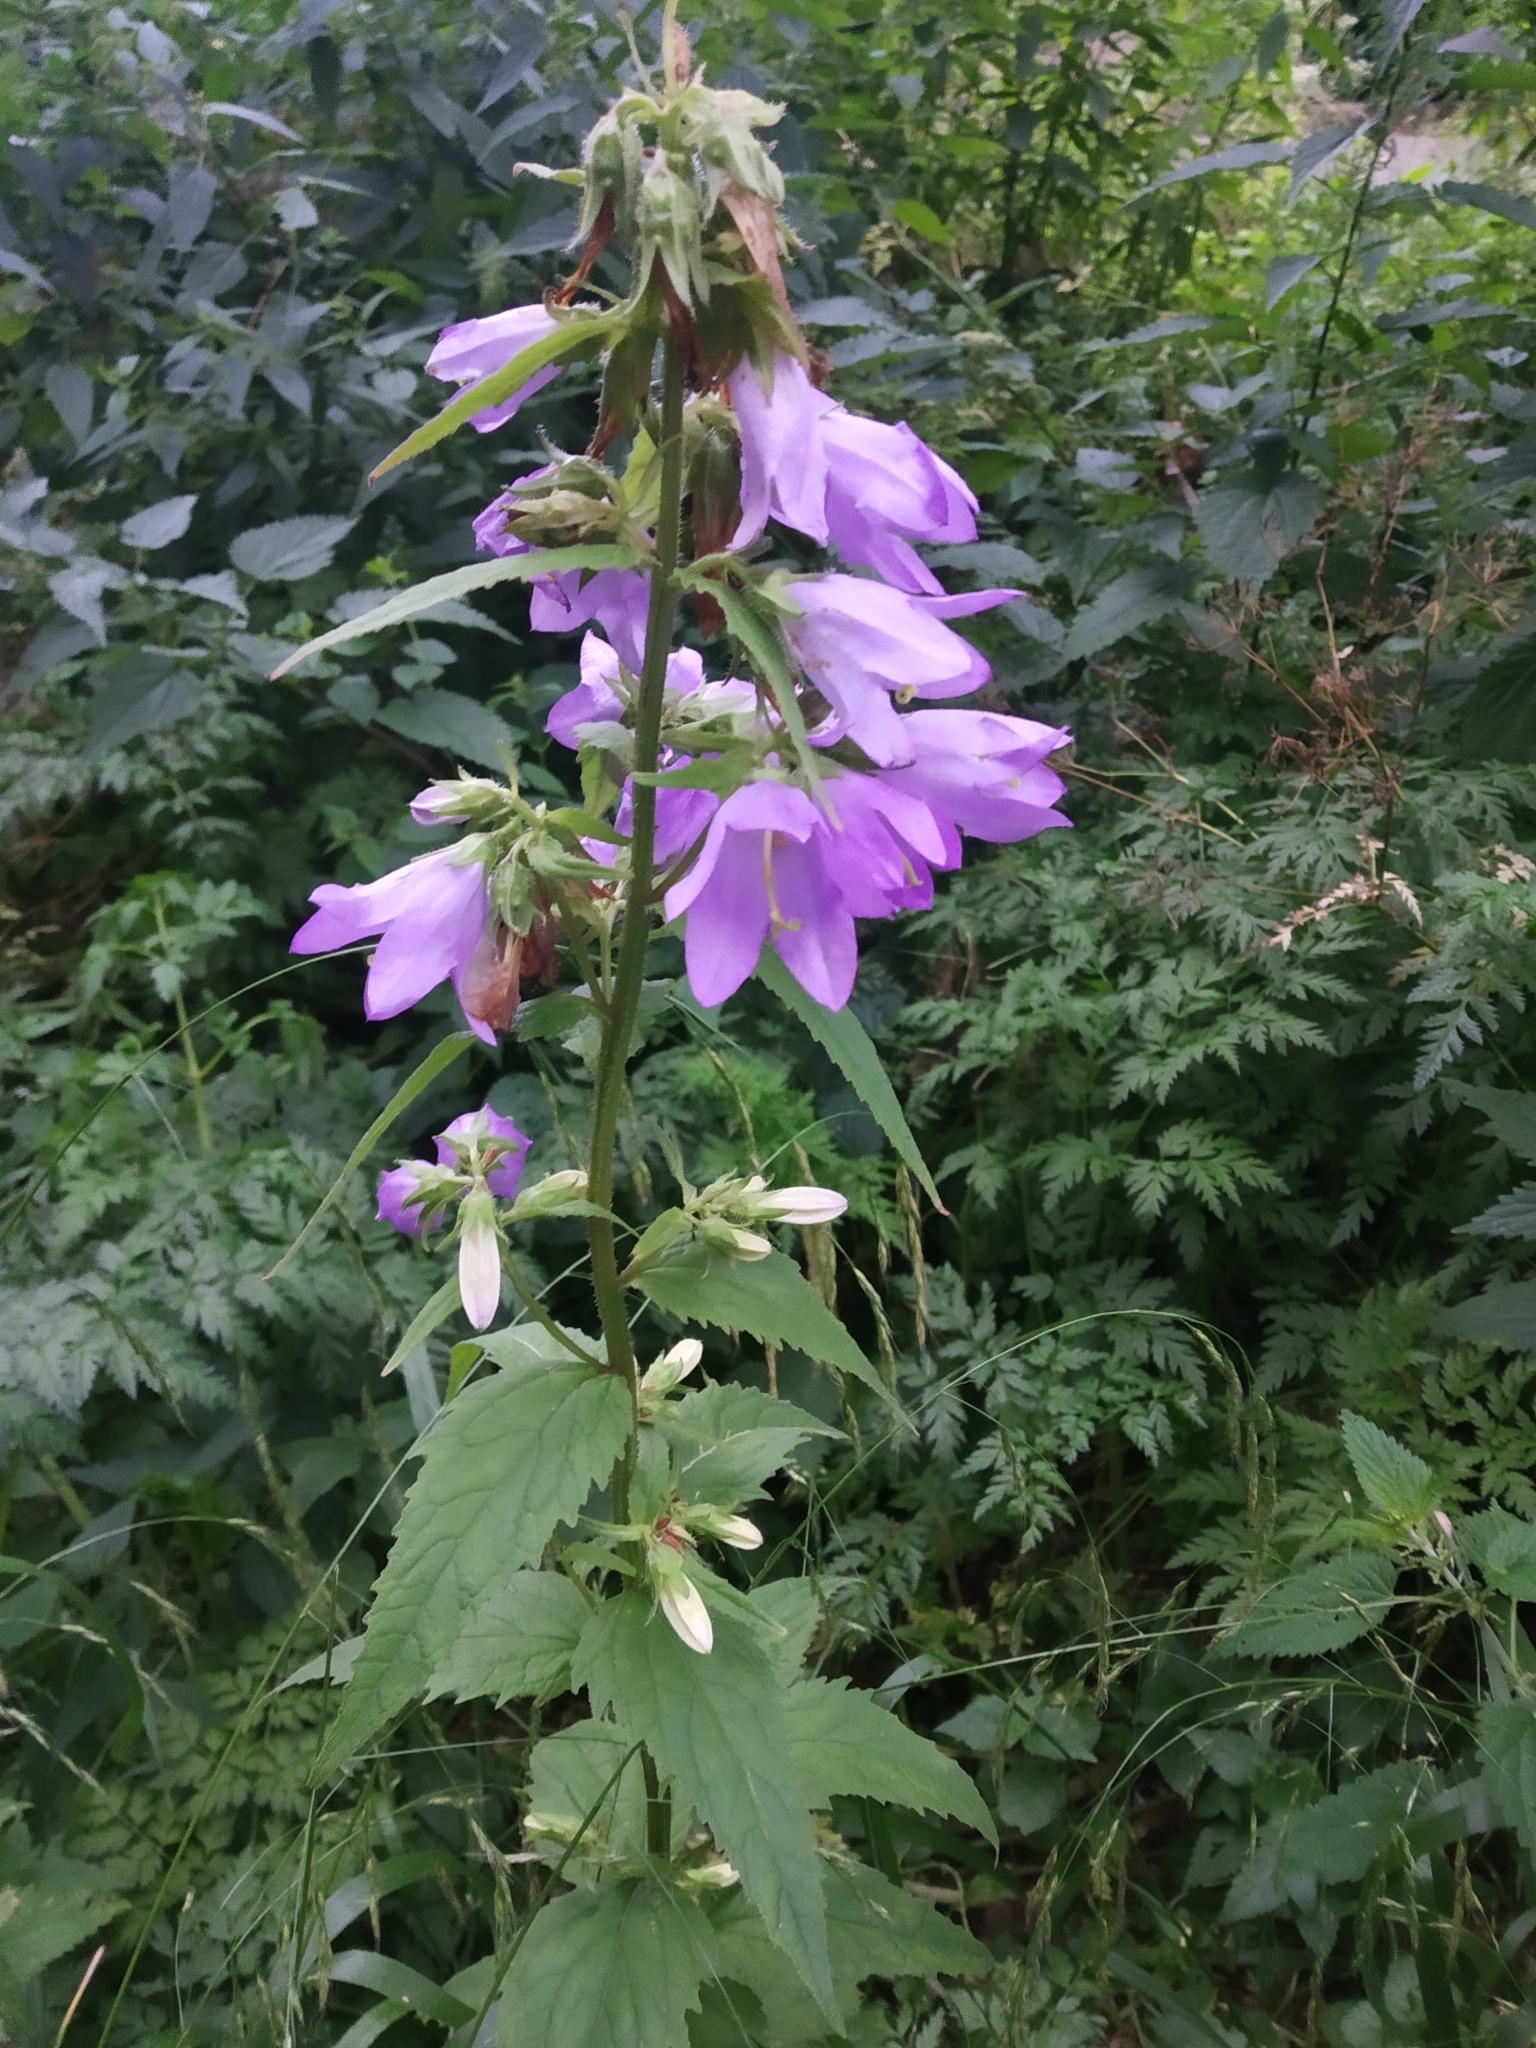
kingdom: Plantae
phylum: Tracheophyta
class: Magnoliopsida
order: Asterales
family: Campanulaceae
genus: Campanula
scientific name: Campanula trachelium
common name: Nettle-leaved bellflower
